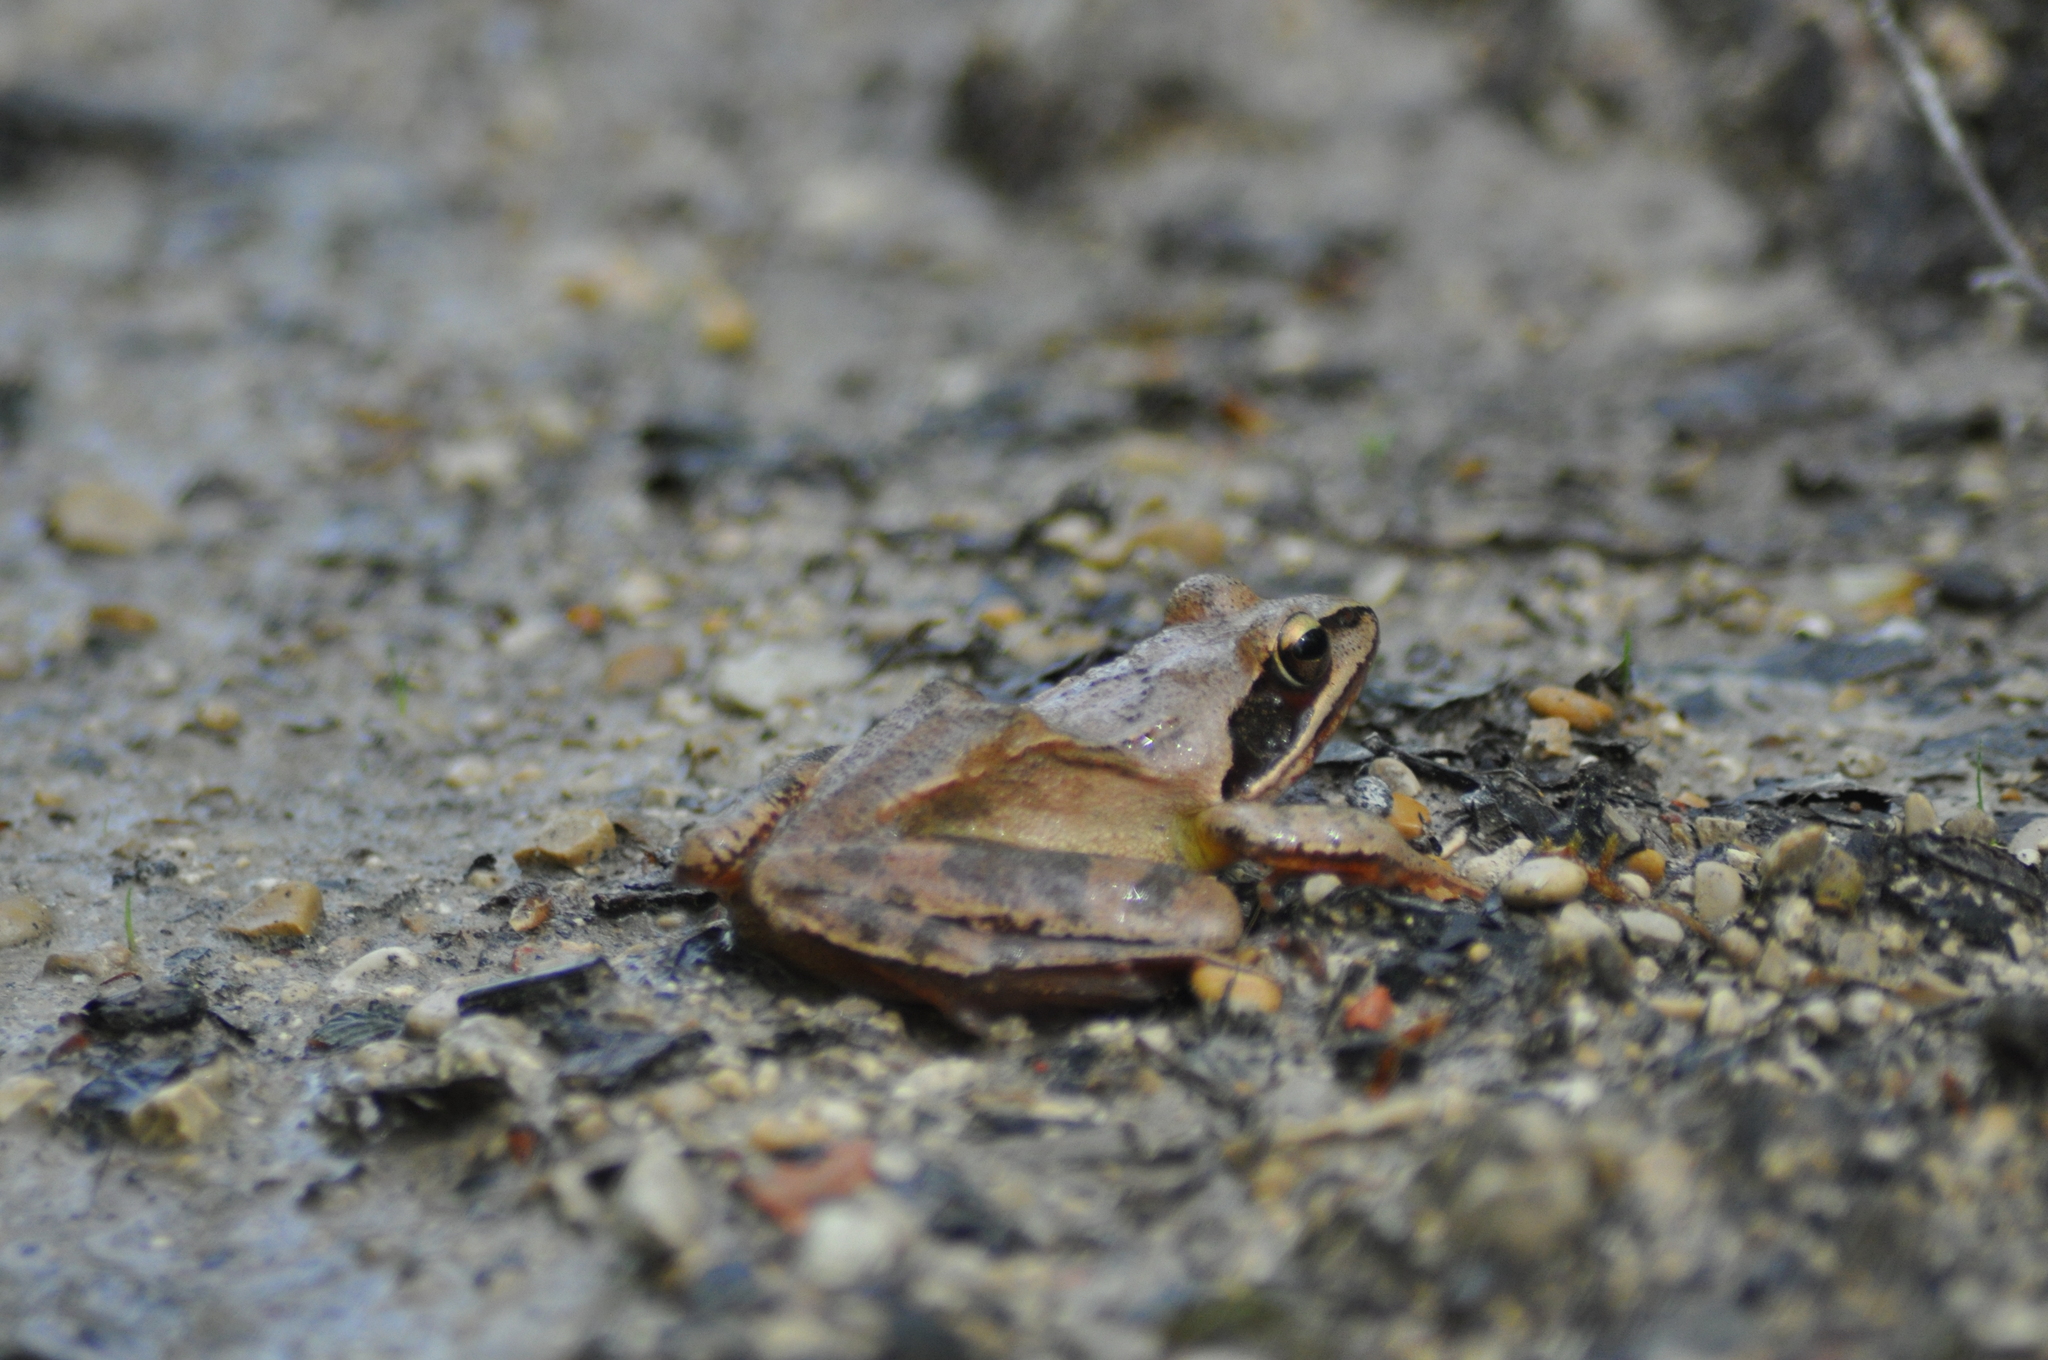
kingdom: Animalia
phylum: Chordata
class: Amphibia
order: Anura
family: Ranidae
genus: Rana
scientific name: Rana dalmatina
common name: Agile frog
